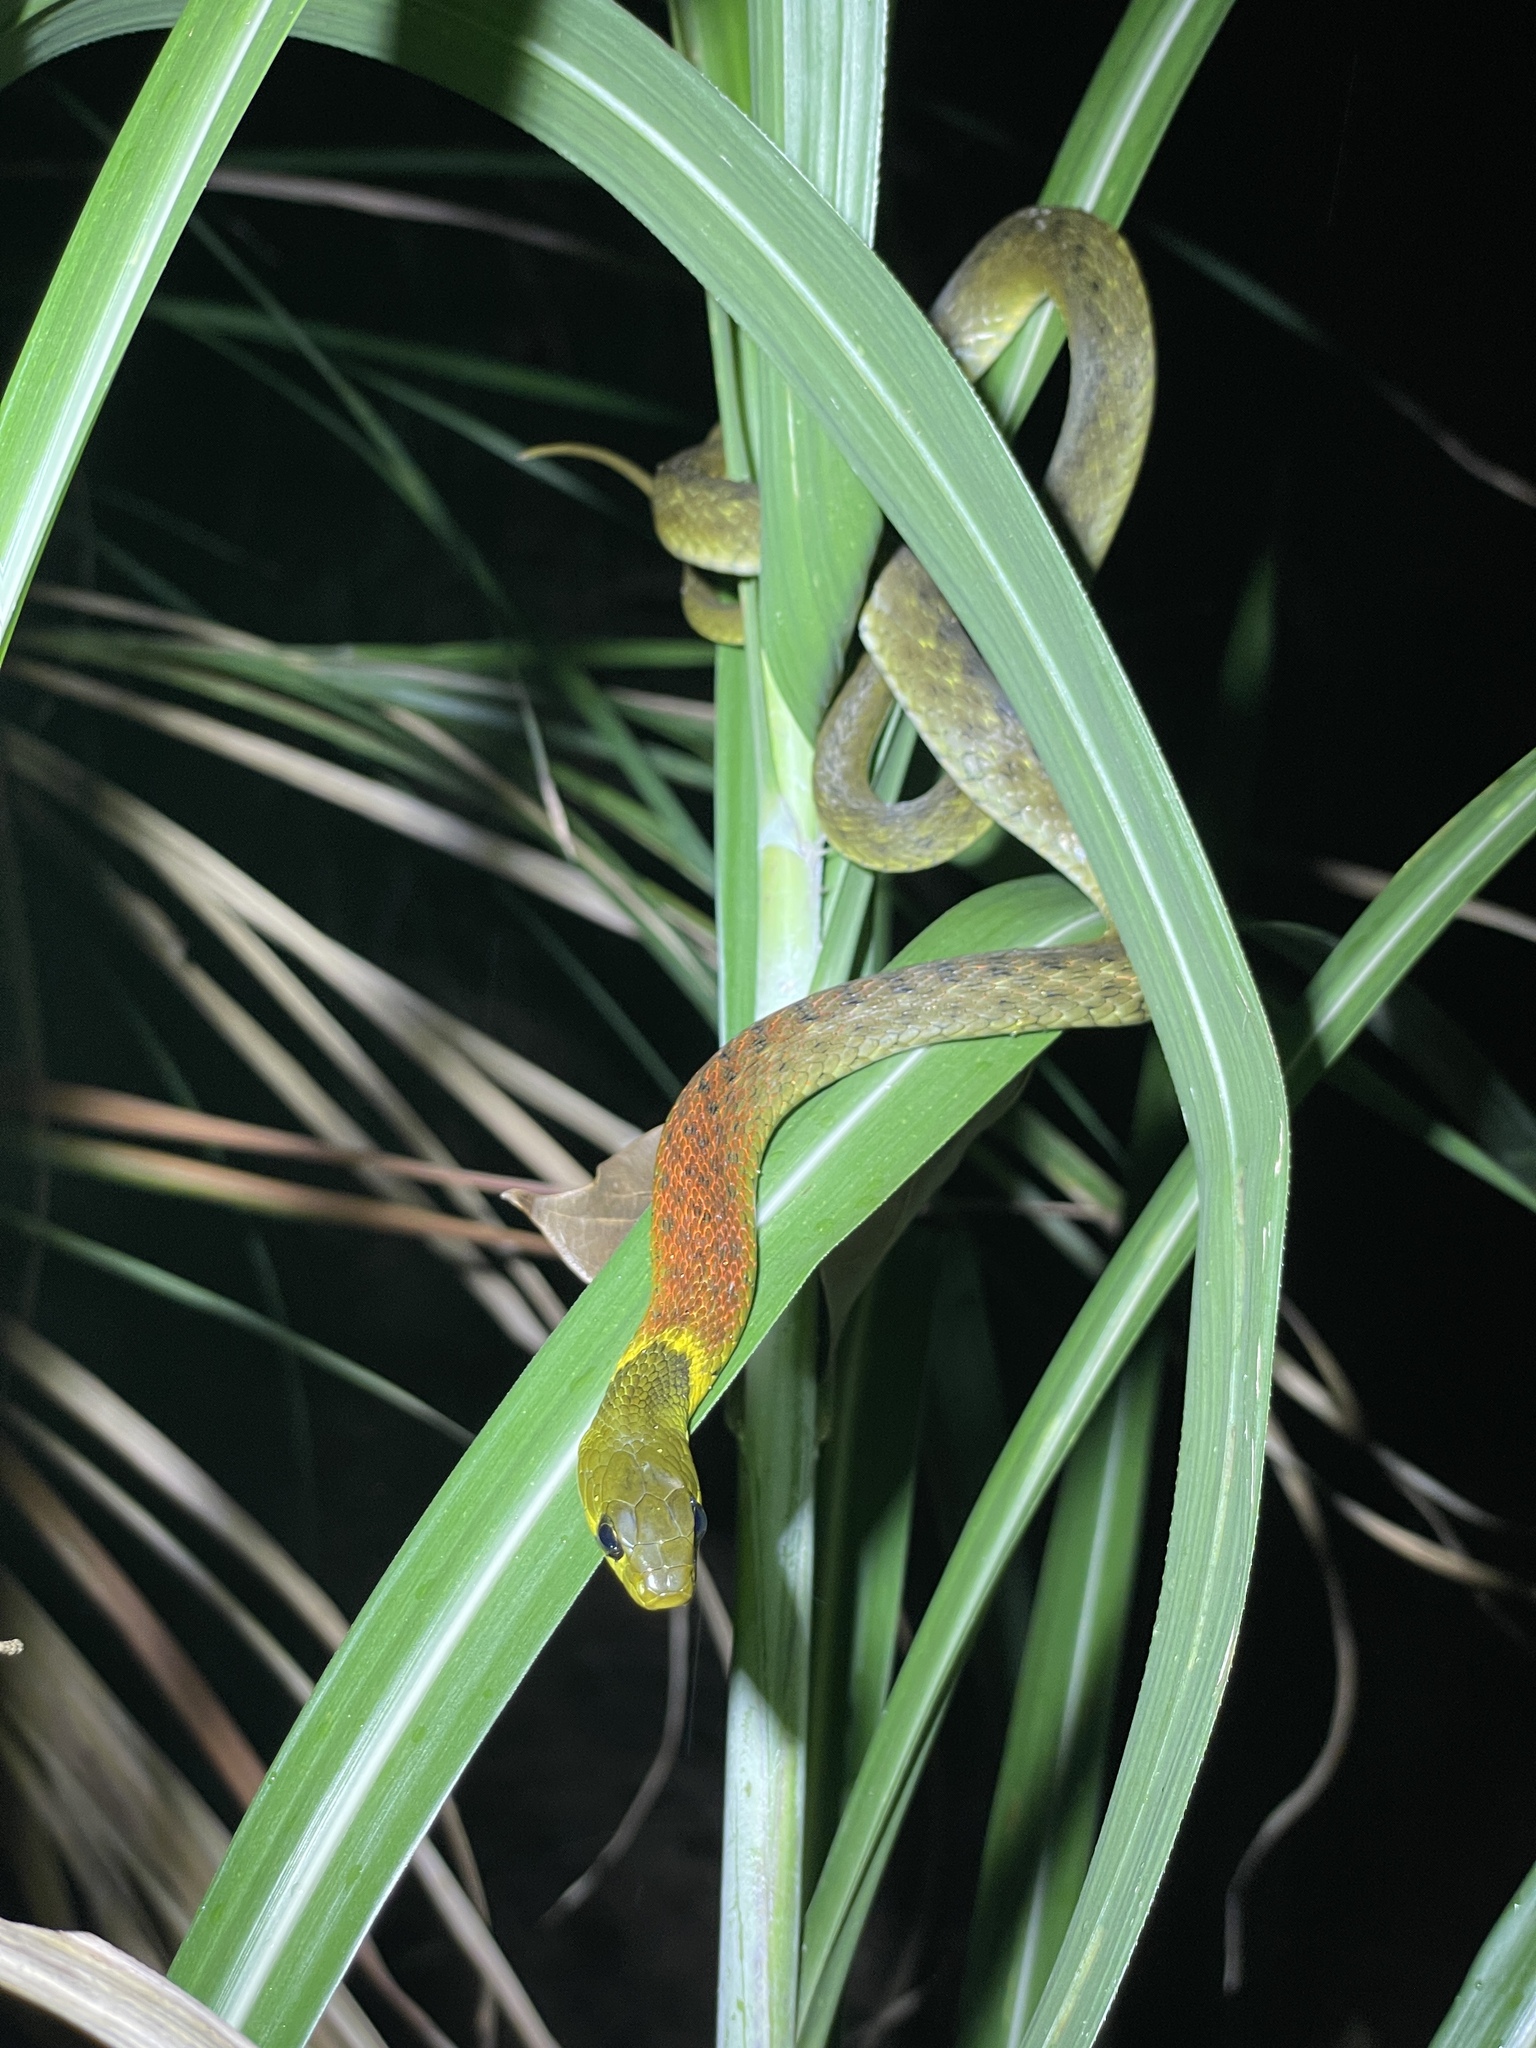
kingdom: Animalia
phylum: Chordata
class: Squamata
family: Colubridae
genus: Rhabdophis
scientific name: Rhabdophis helleri
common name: Heller’s red-necked keelback
